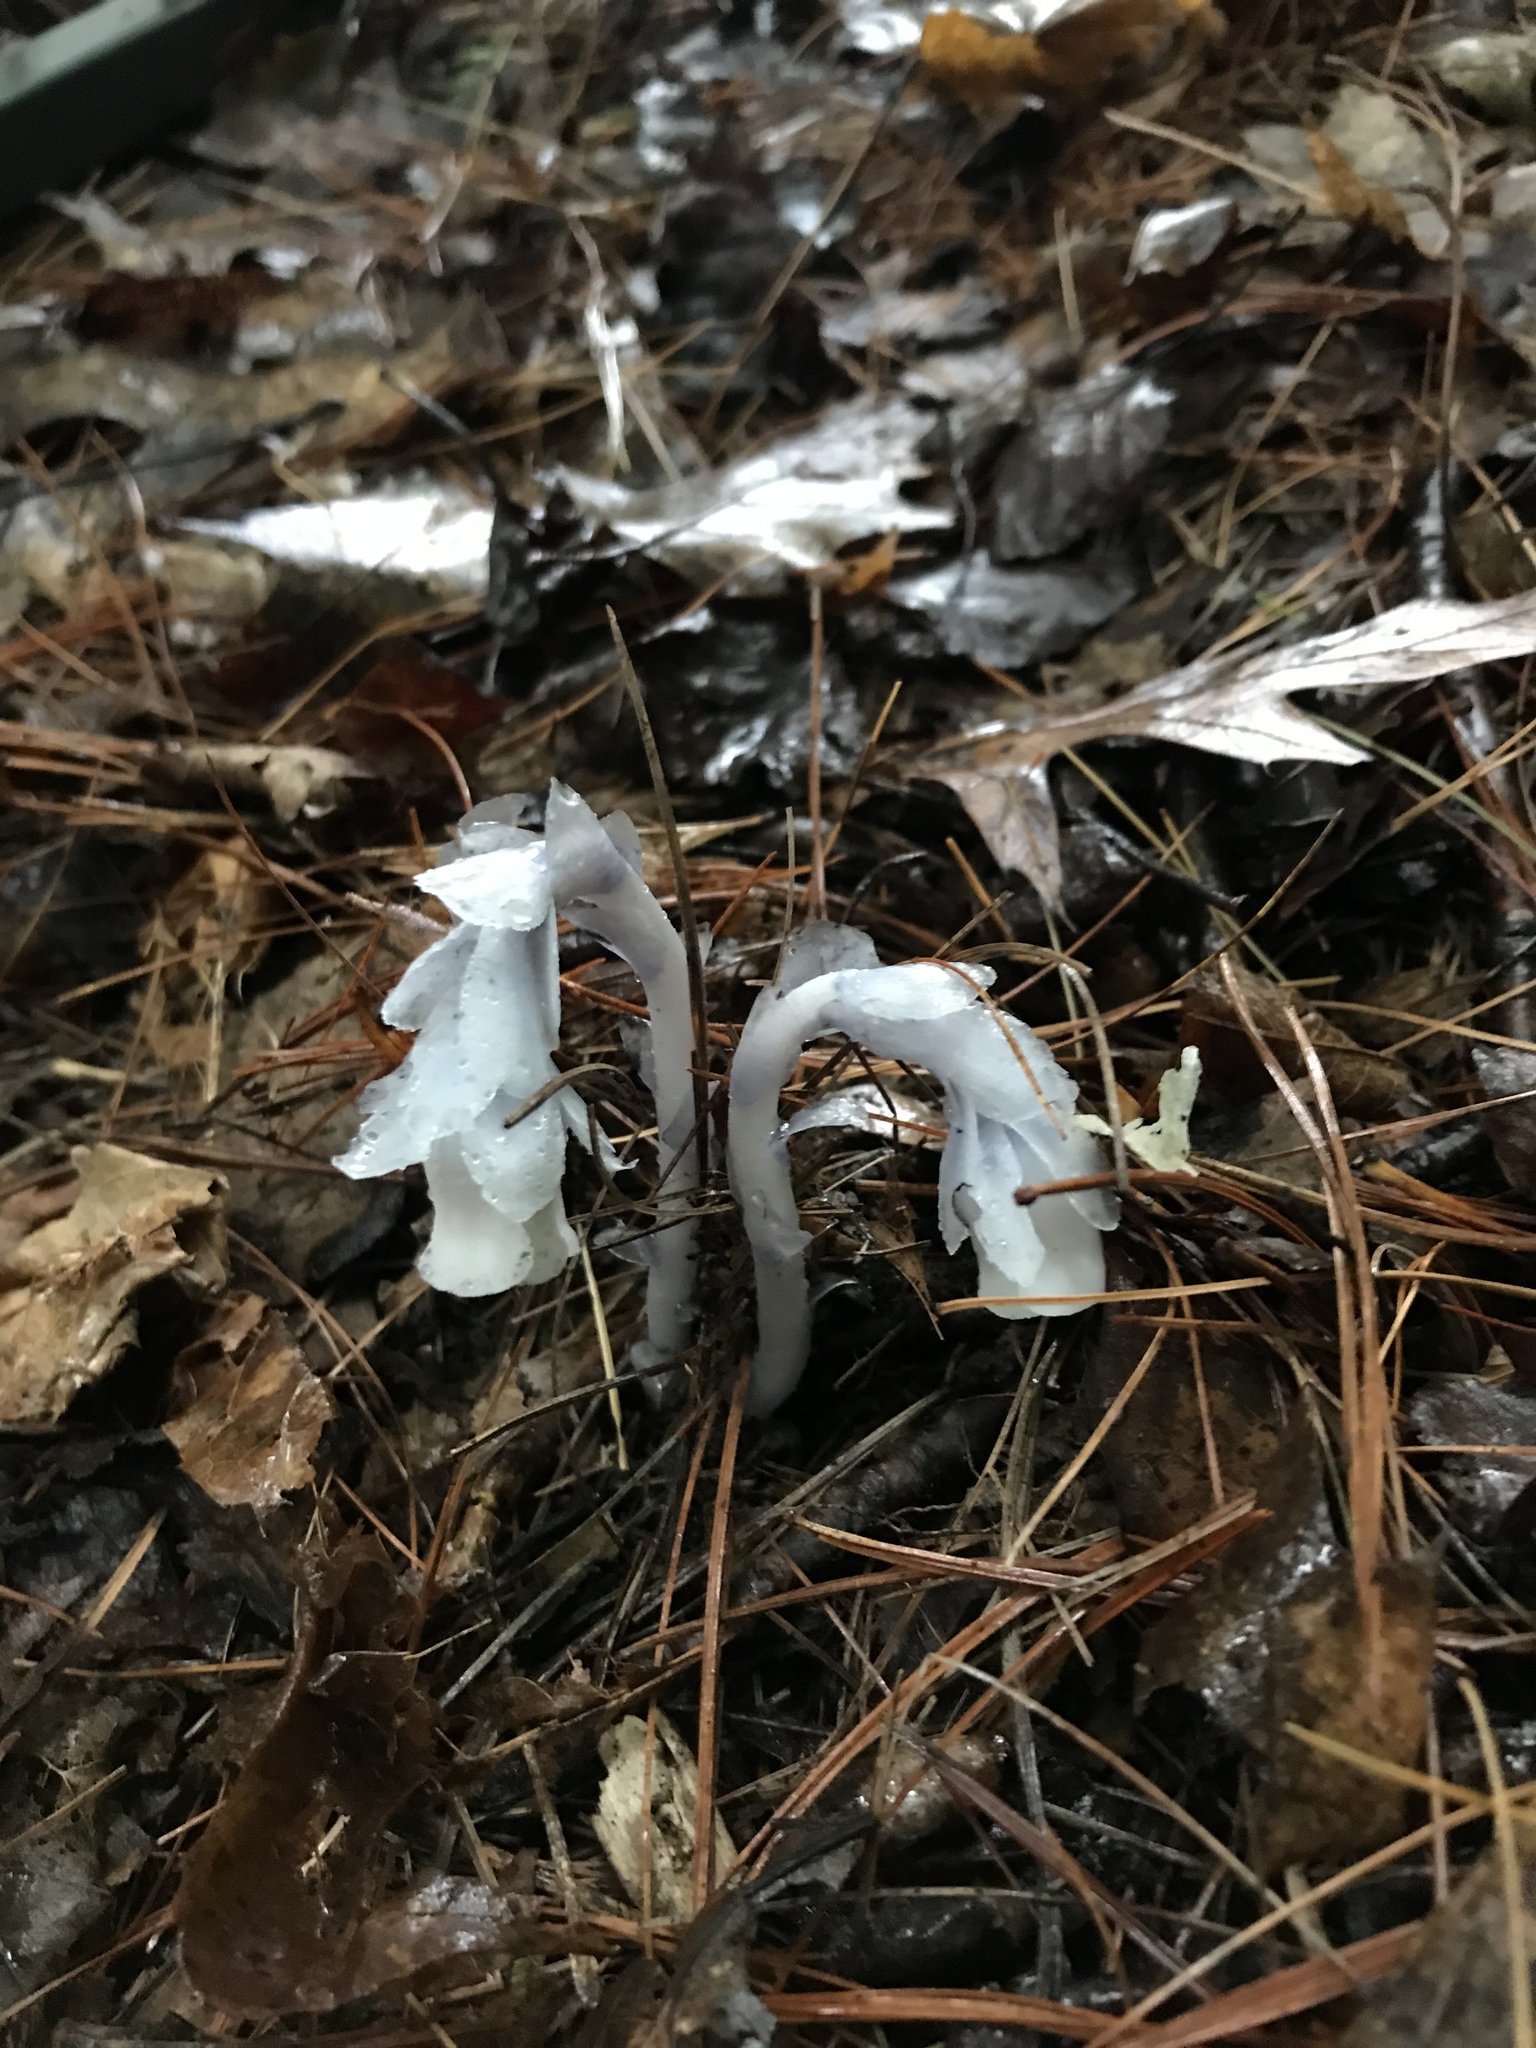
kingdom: Plantae
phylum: Tracheophyta
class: Magnoliopsida
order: Ericales
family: Ericaceae
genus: Monotropa
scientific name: Monotropa uniflora
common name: Convulsion root
